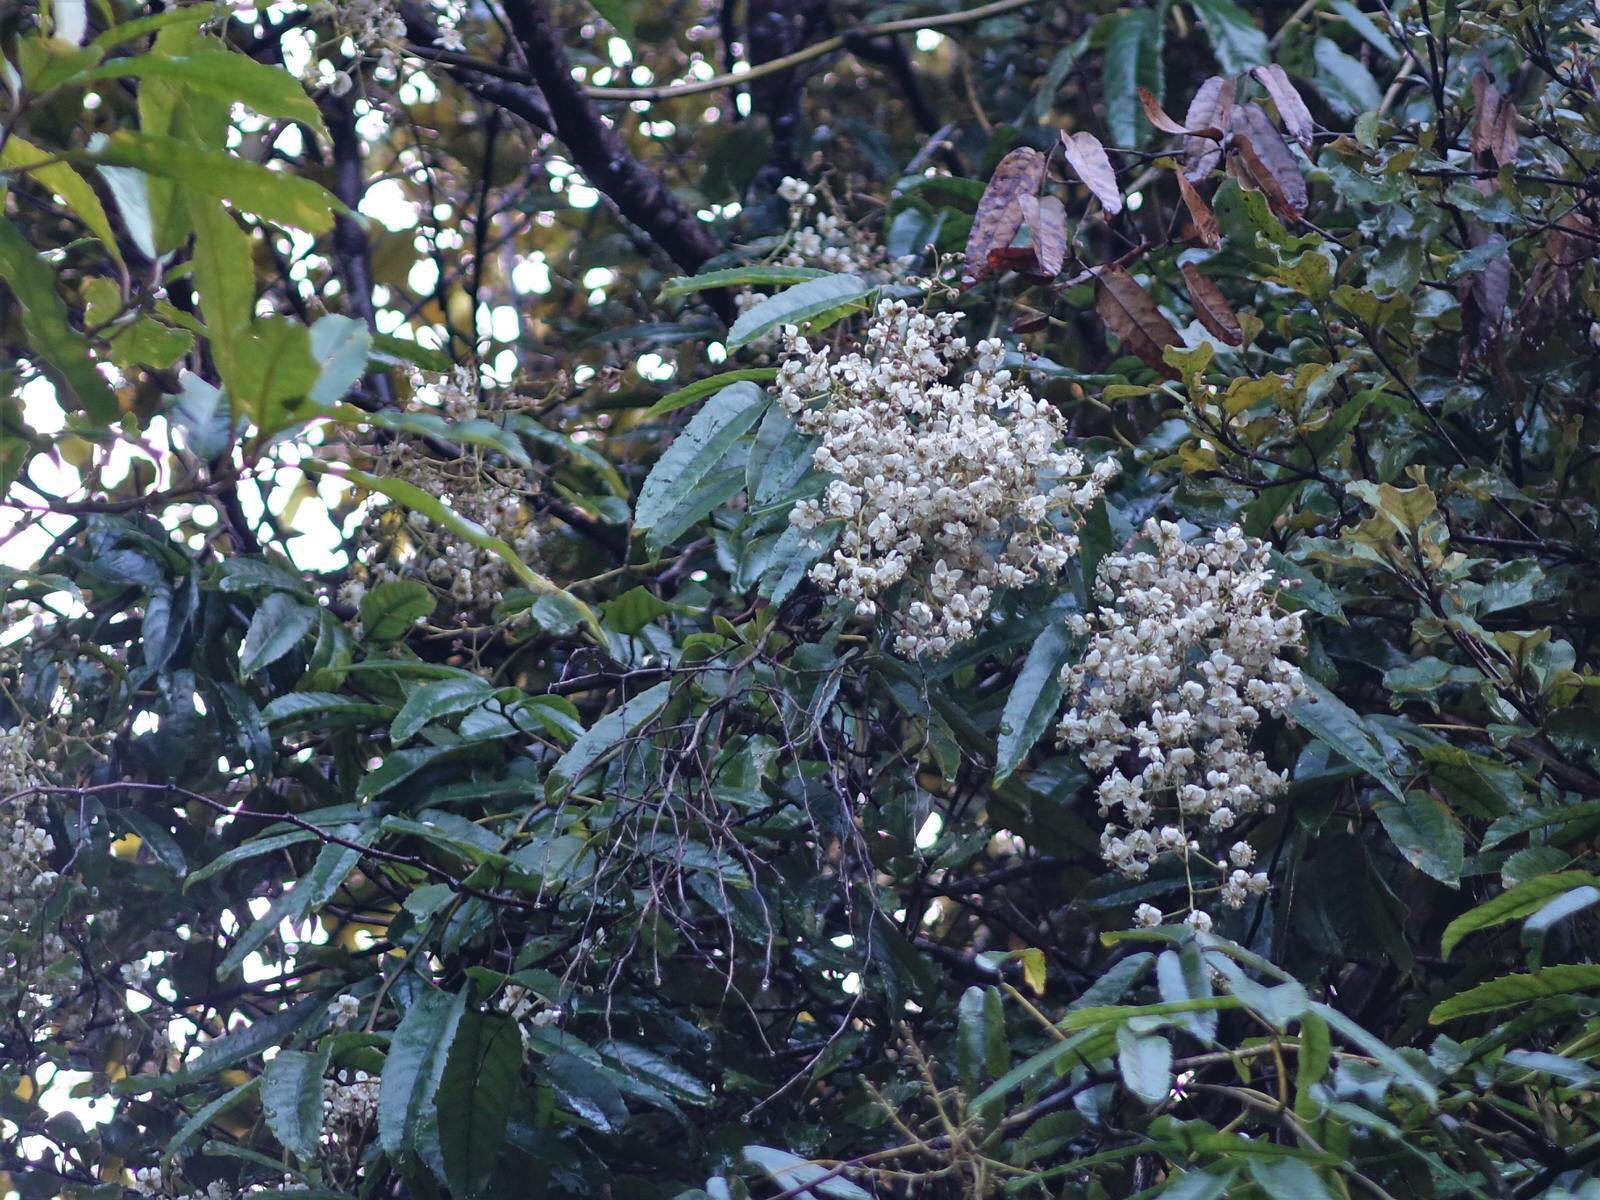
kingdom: Plantae
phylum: Tracheophyta
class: Magnoliopsida
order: Rosales
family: Rosaceae
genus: Rubus
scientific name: Rubus cissoides
